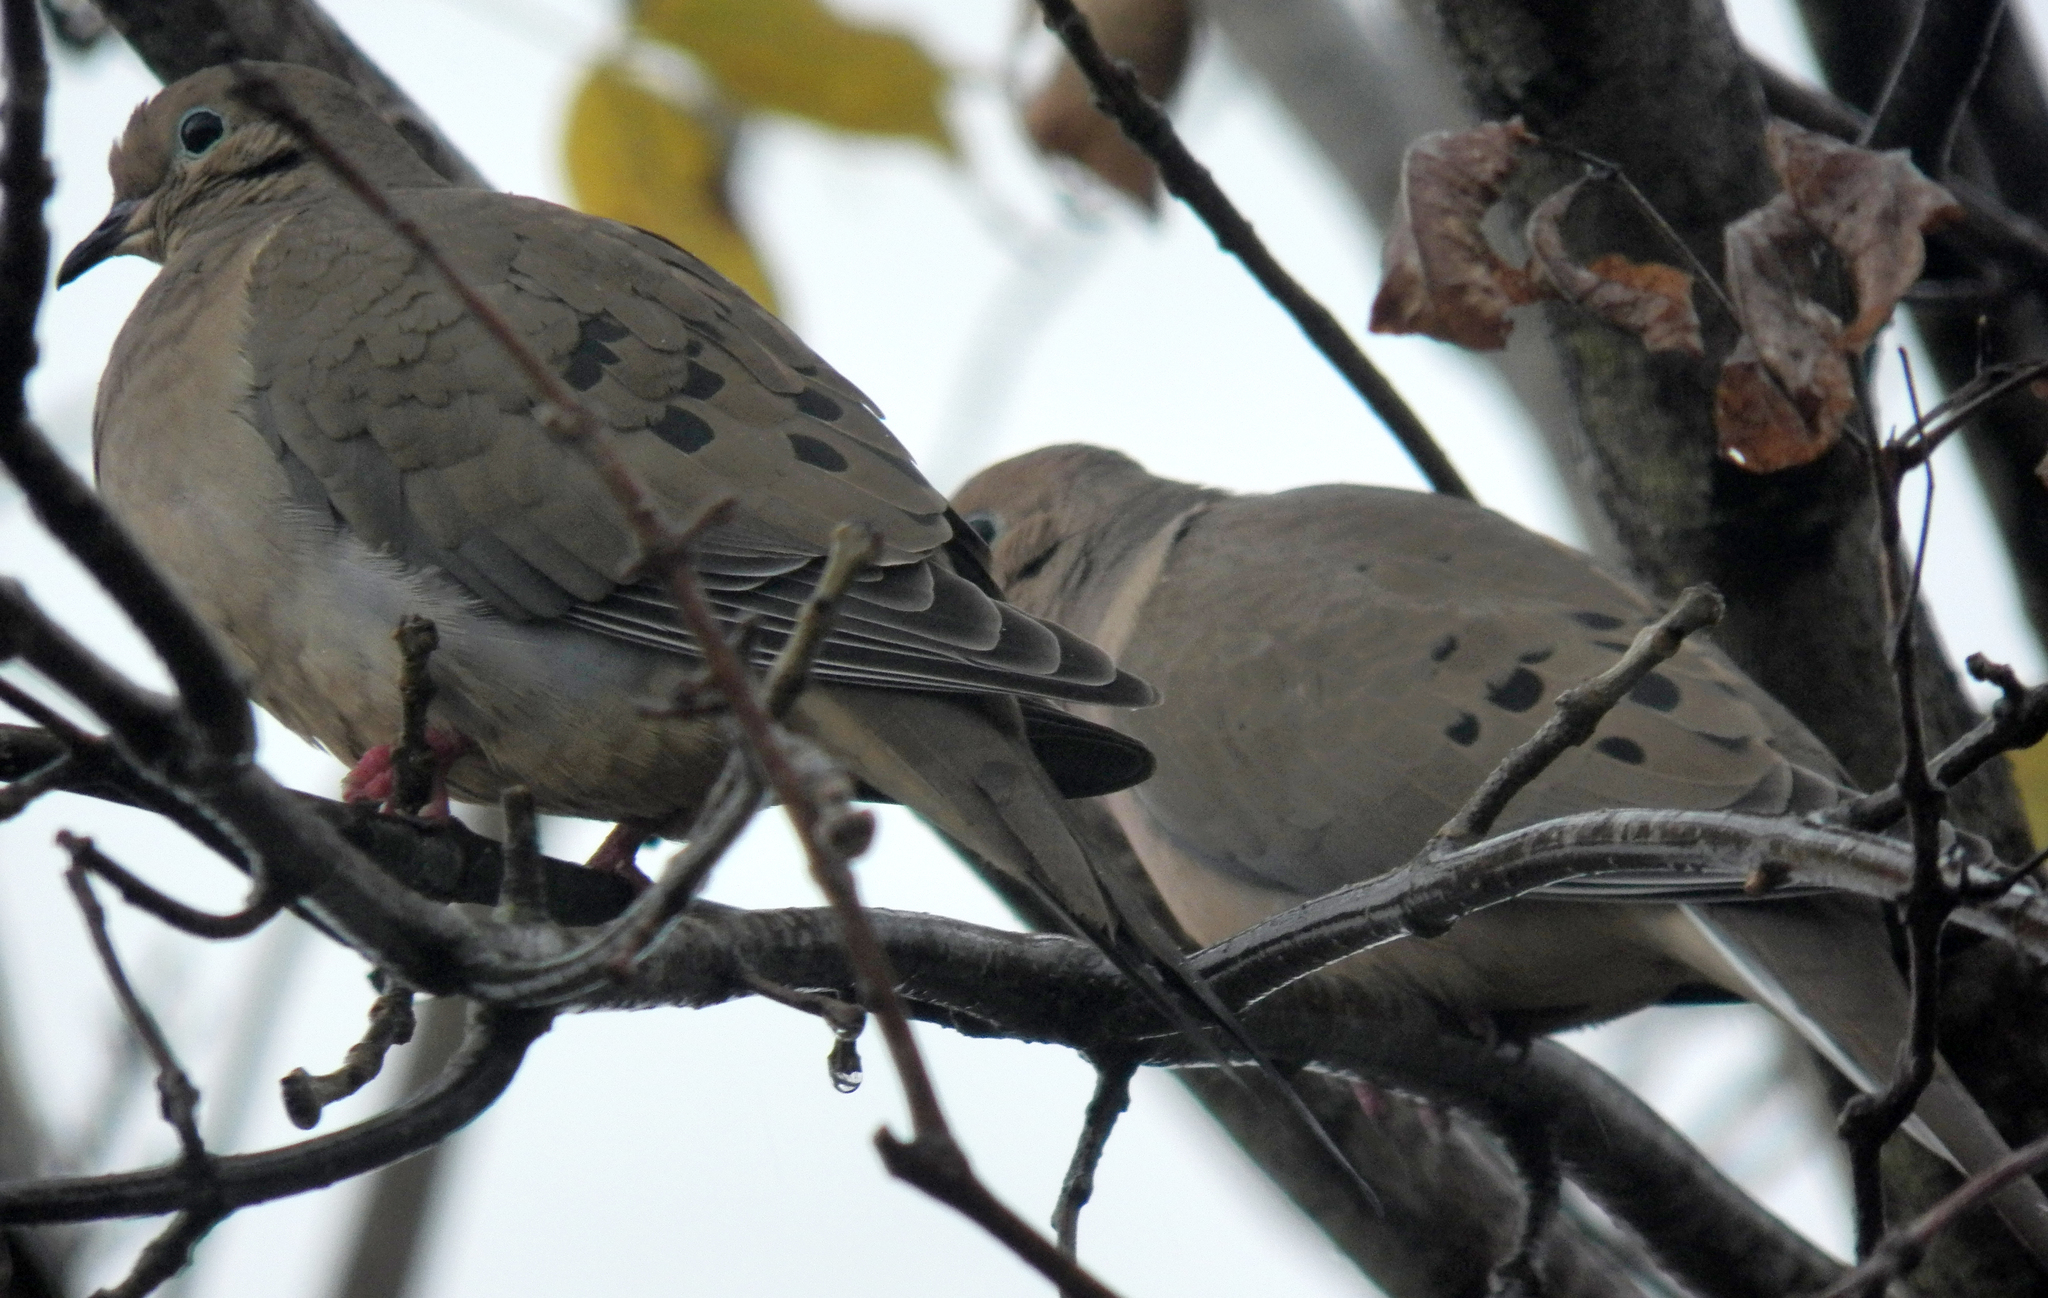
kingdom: Animalia
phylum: Chordata
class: Aves
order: Columbiformes
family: Columbidae
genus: Zenaida
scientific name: Zenaida macroura
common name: Mourning dove
